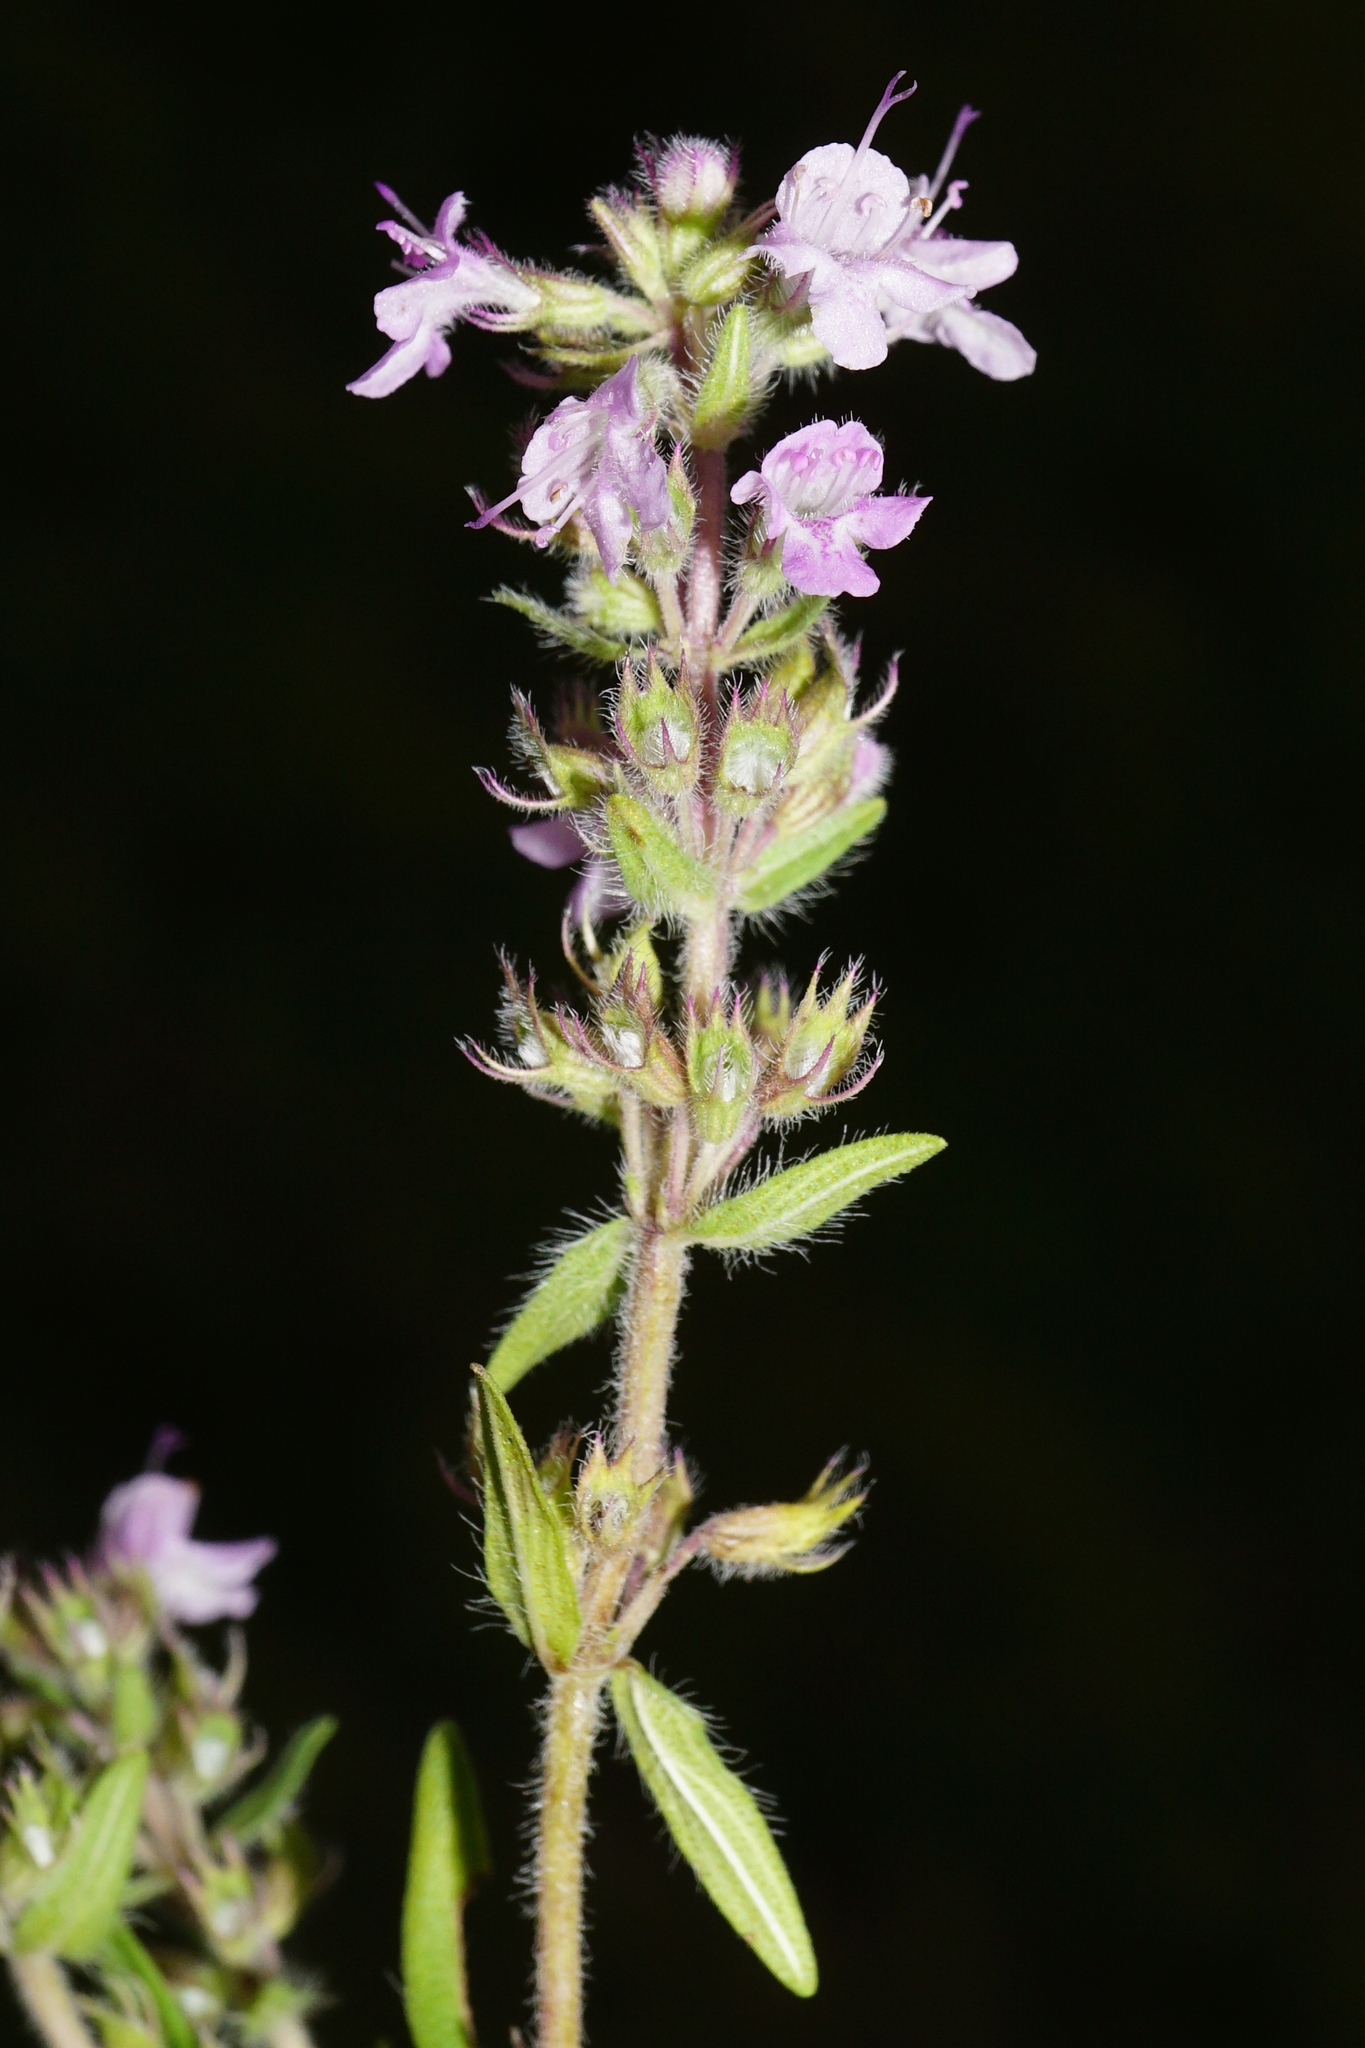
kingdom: Plantae
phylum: Tracheophyta
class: Magnoliopsida
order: Lamiales
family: Lamiaceae
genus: Thymus
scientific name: Thymus pannonicus
